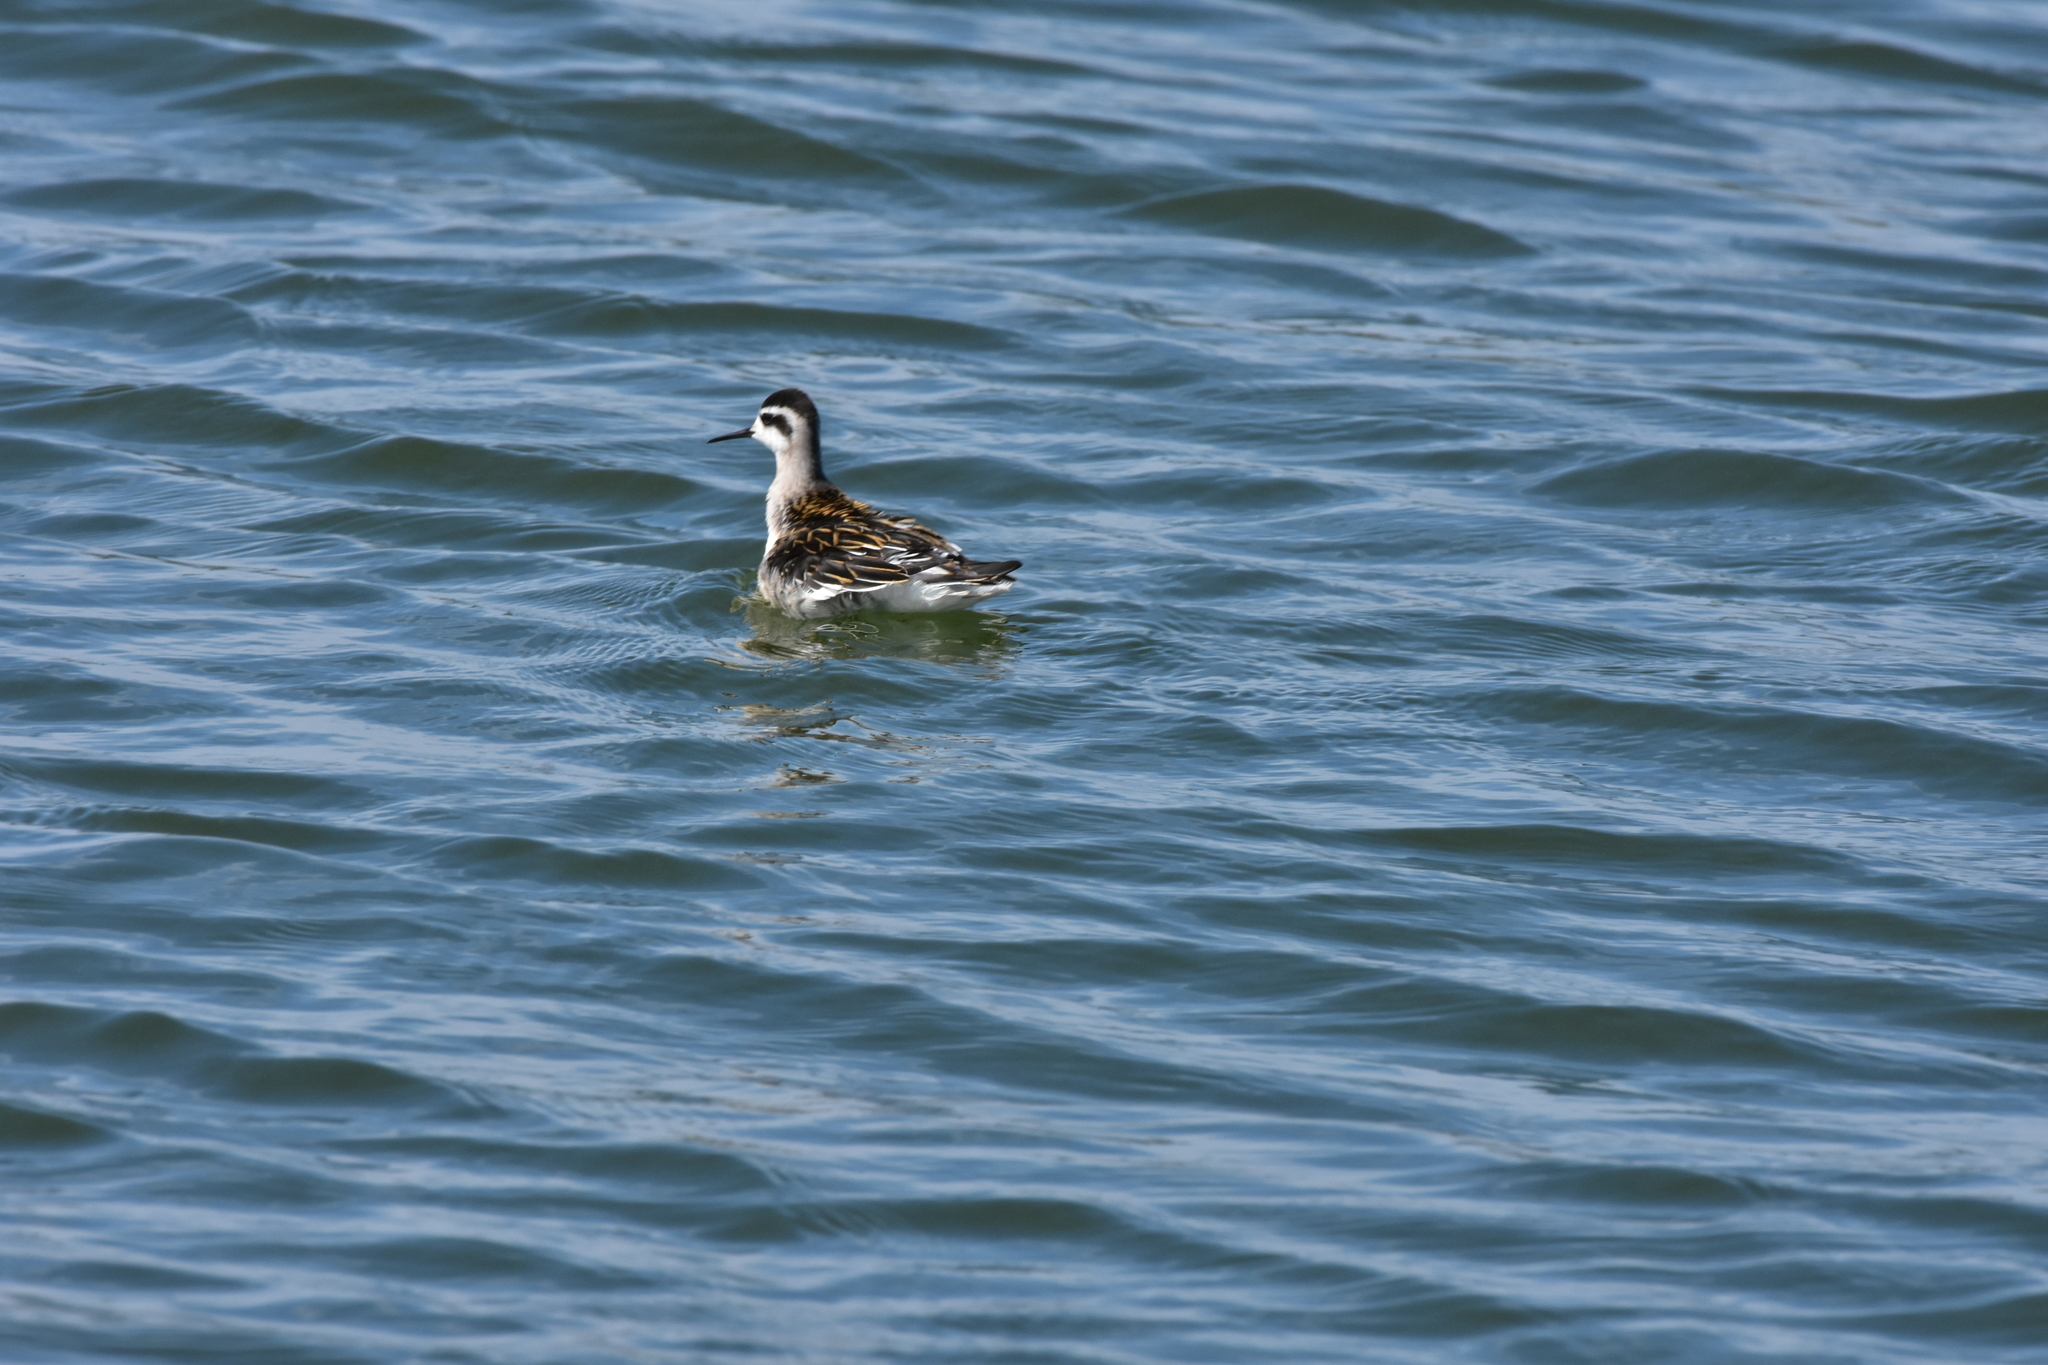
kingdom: Animalia
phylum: Chordata
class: Aves
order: Charadriiformes
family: Scolopacidae
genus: Phalaropus
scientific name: Phalaropus lobatus
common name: Red-necked phalarope
